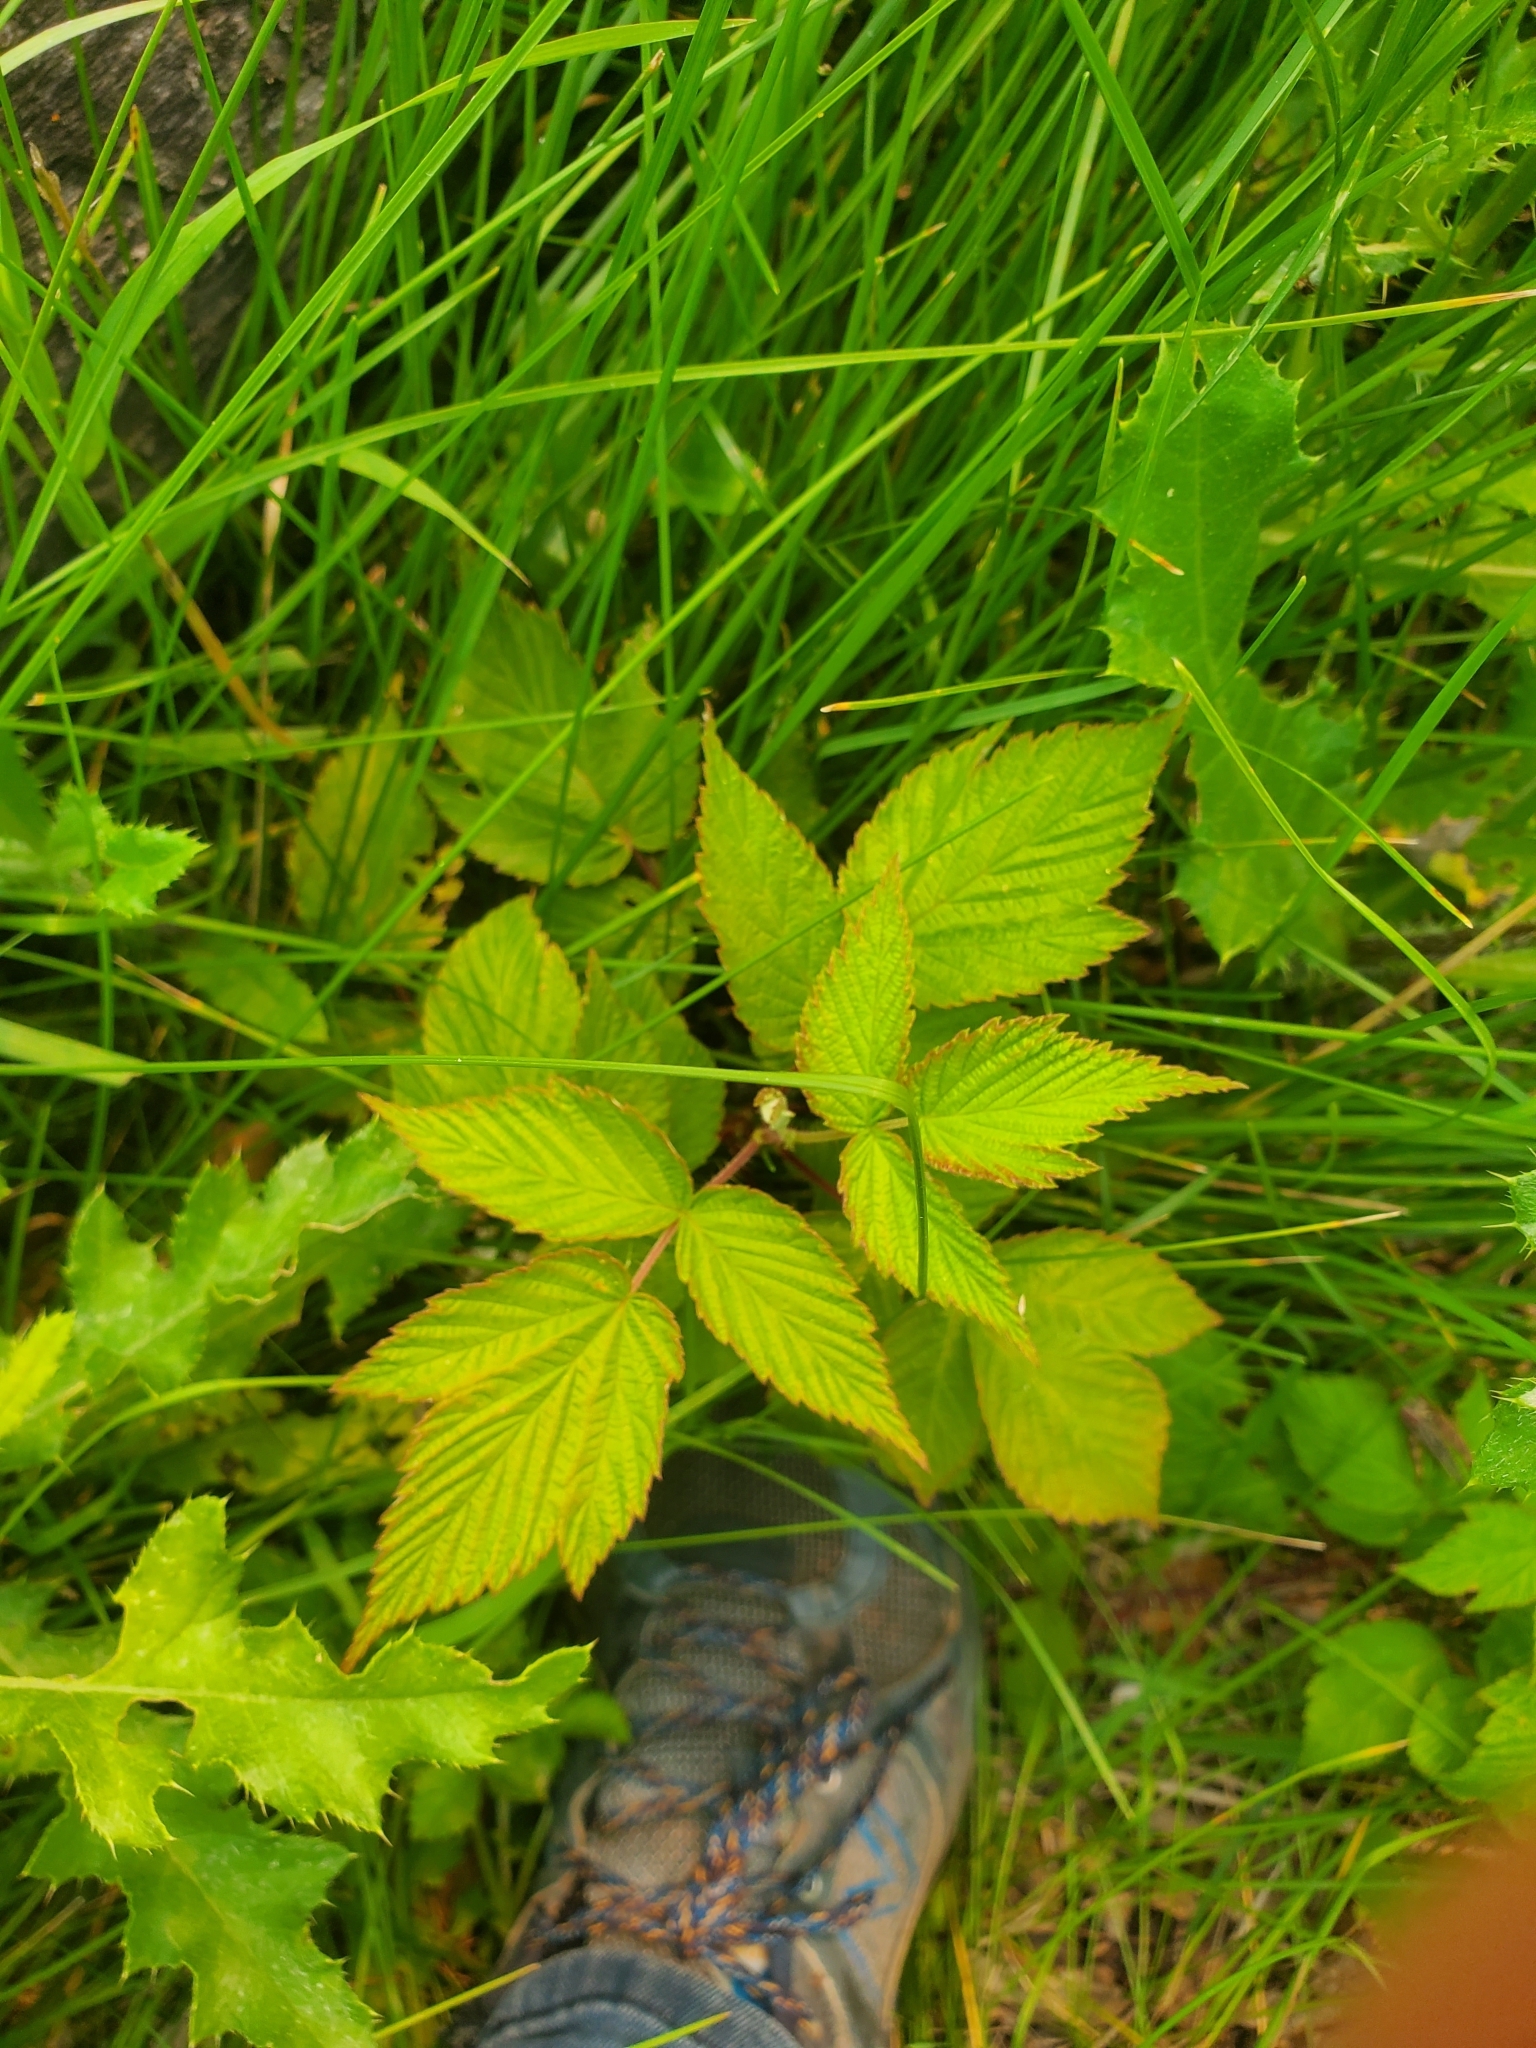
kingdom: Plantae
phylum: Tracheophyta
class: Magnoliopsida
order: Rosales
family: Rosaceae
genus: Rubus
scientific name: Rubus idaeus
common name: Raspberry
